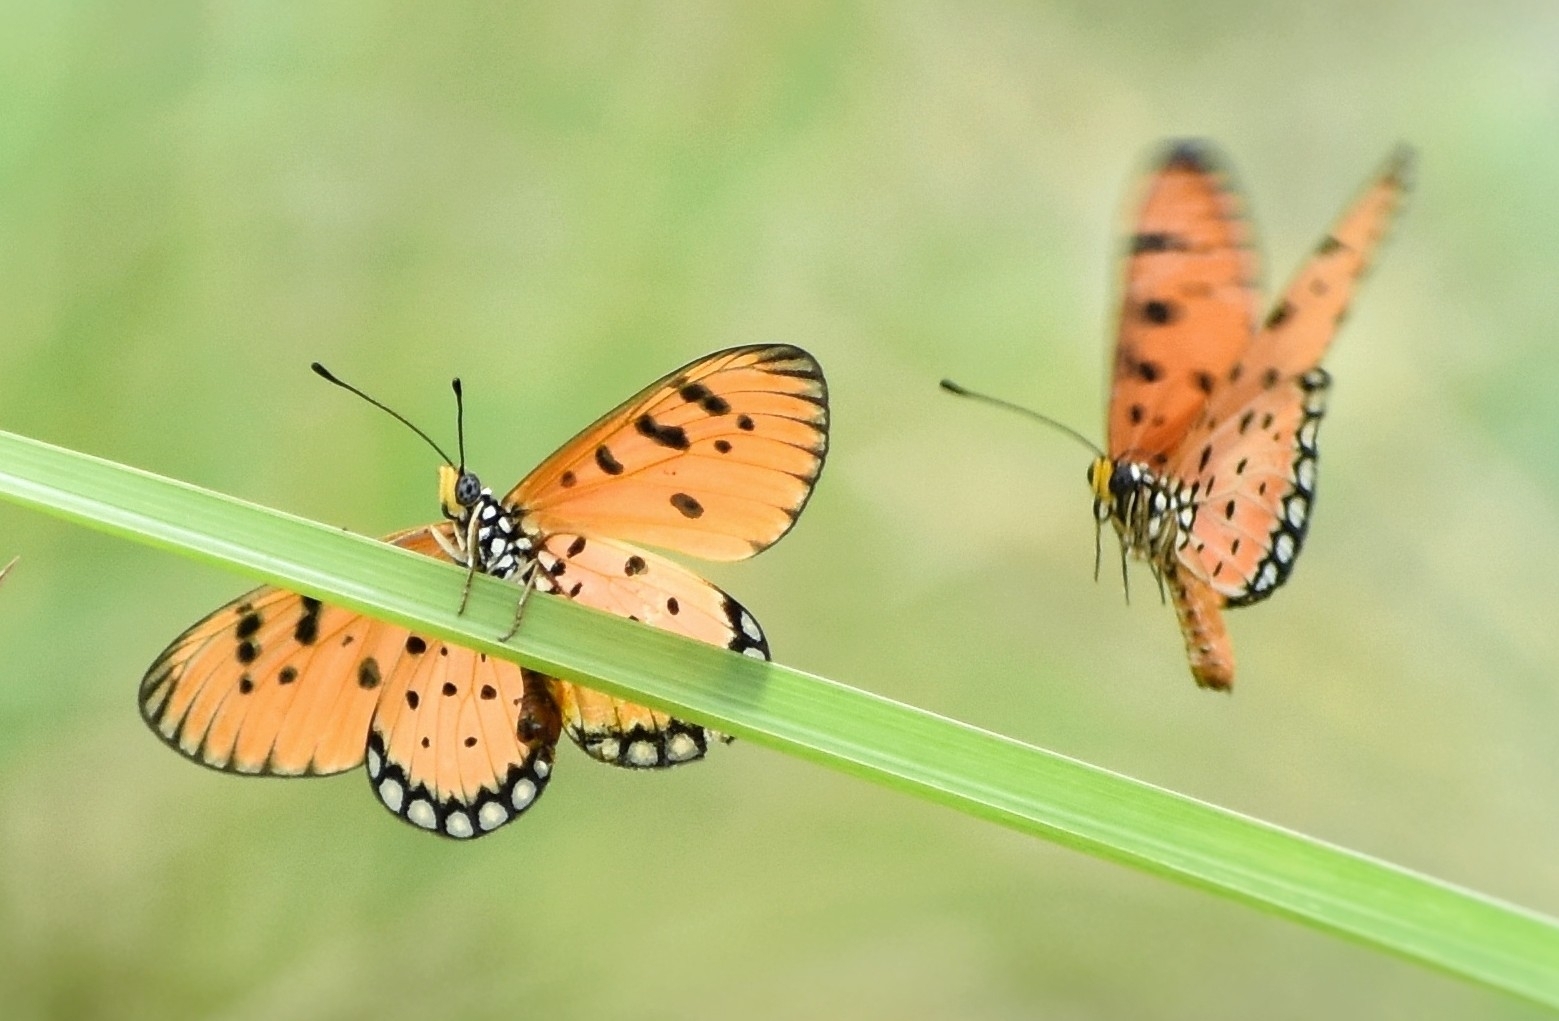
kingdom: Animalia
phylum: Arthropoda
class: Insecta
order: Lepidoptera
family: Nymphalidae
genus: Acraea
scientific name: Acraea terpsicore
